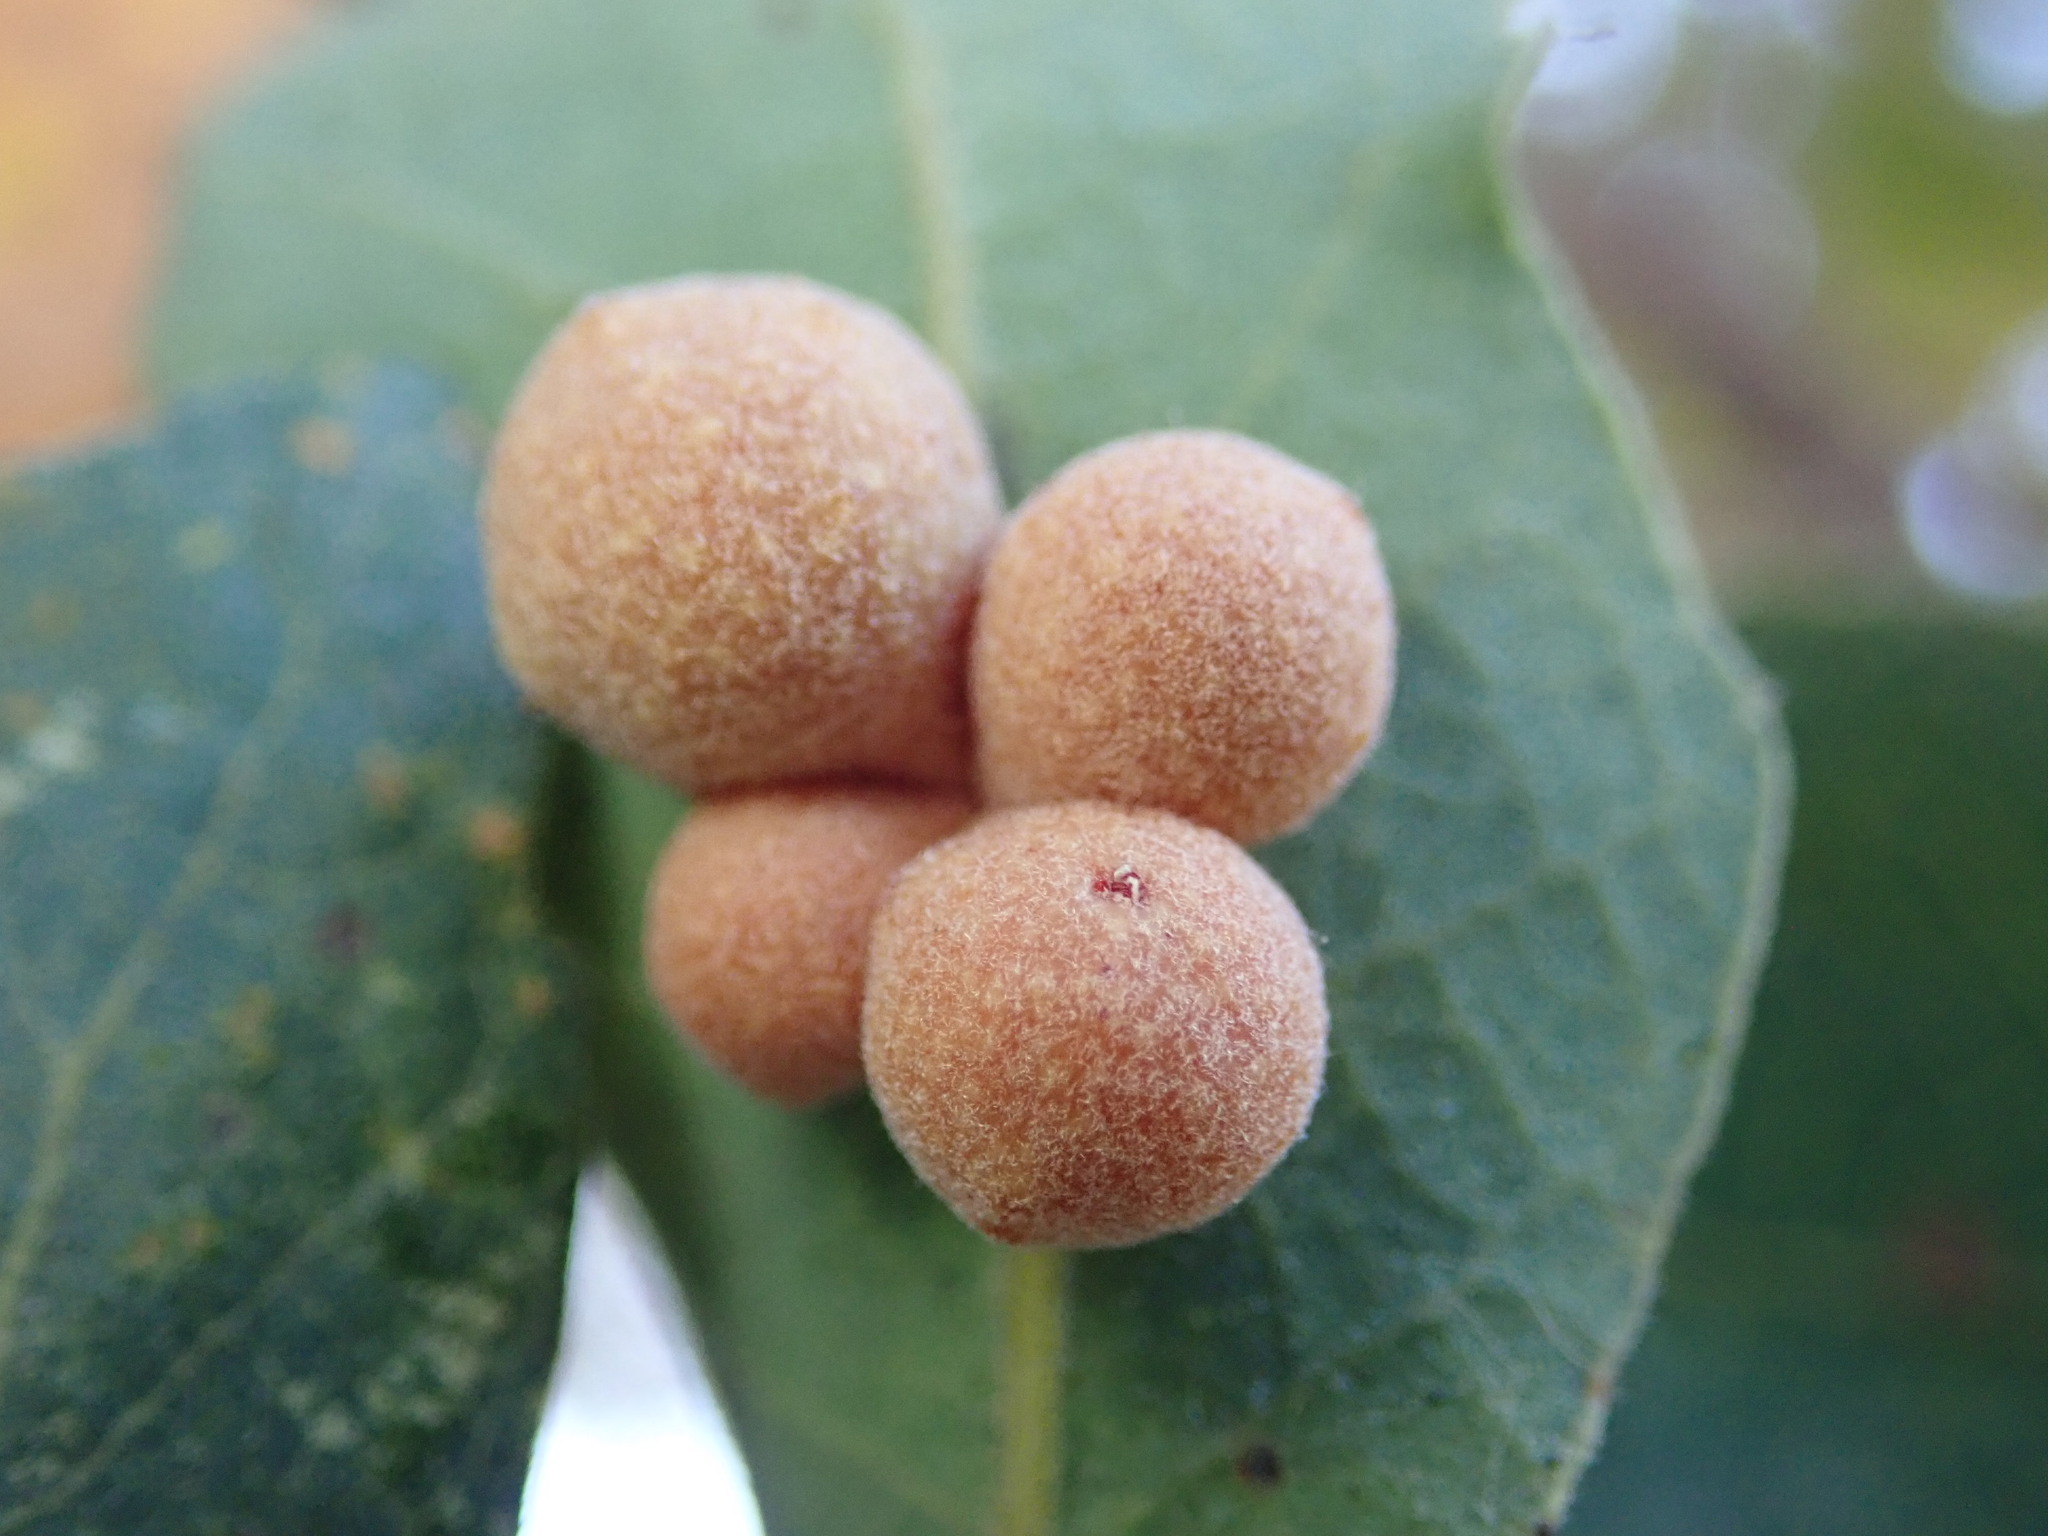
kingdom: Animalia
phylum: Arthropoda
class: Insecta
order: Hymenoptera
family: Cynipidae
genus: Andricus
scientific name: Andricus
